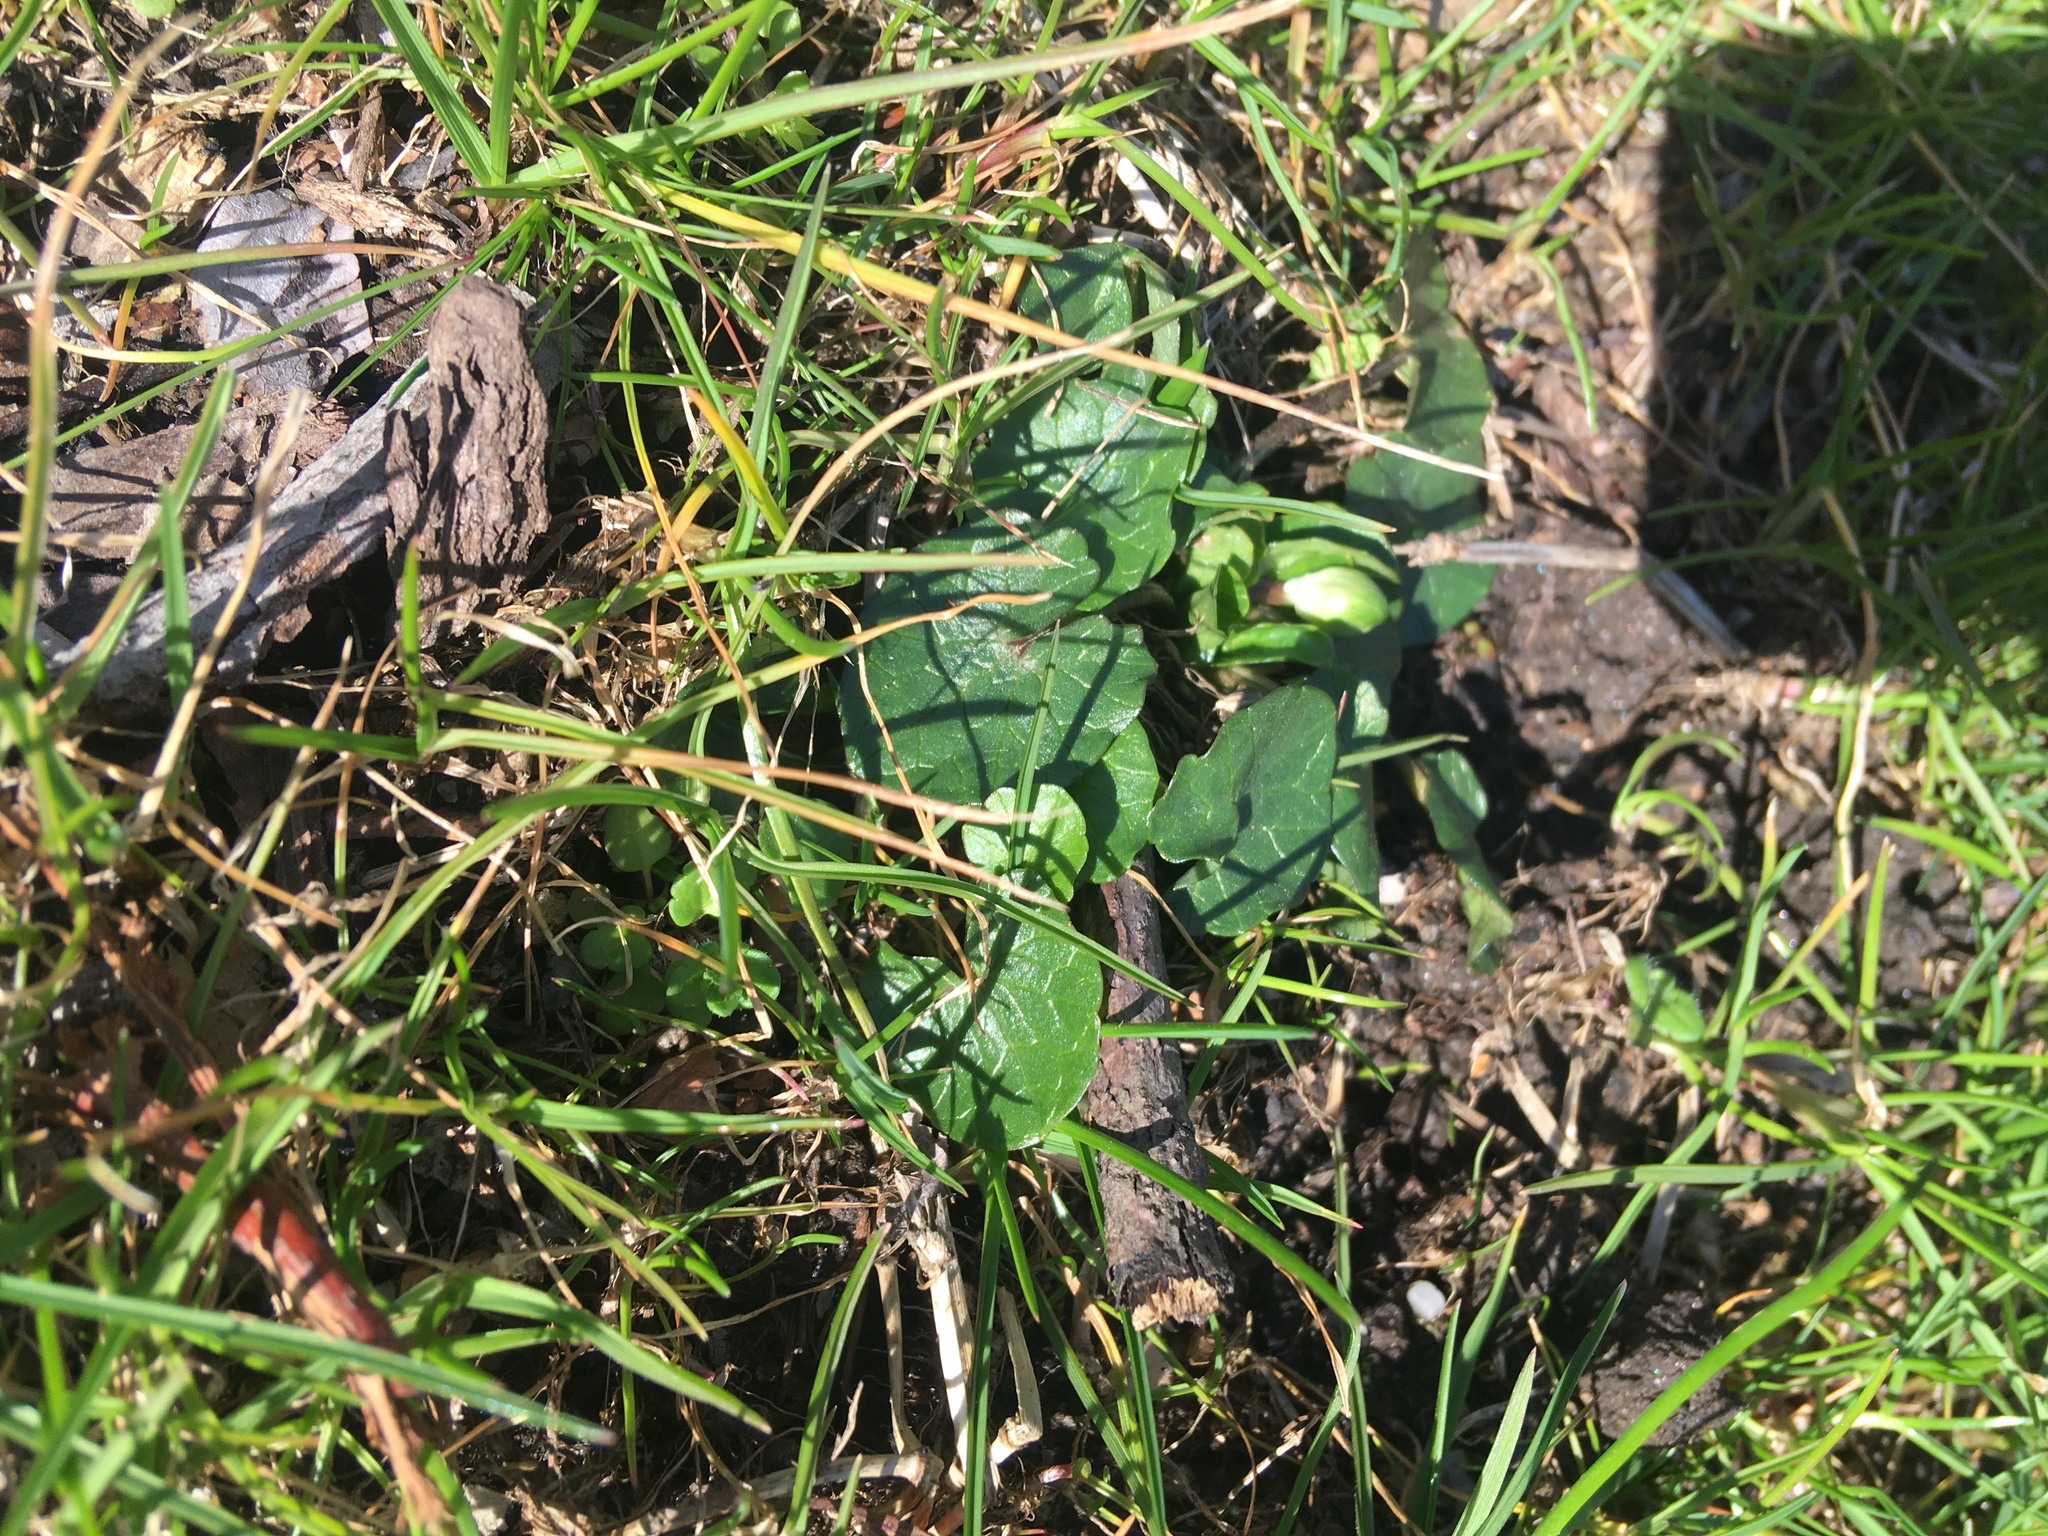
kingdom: Plantae
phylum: Tracheophyta
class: Magnoliopsida
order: Ranunculales
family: Ranunculaceae
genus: Ficaria
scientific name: Ficaria verna
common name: Lesser celandine
